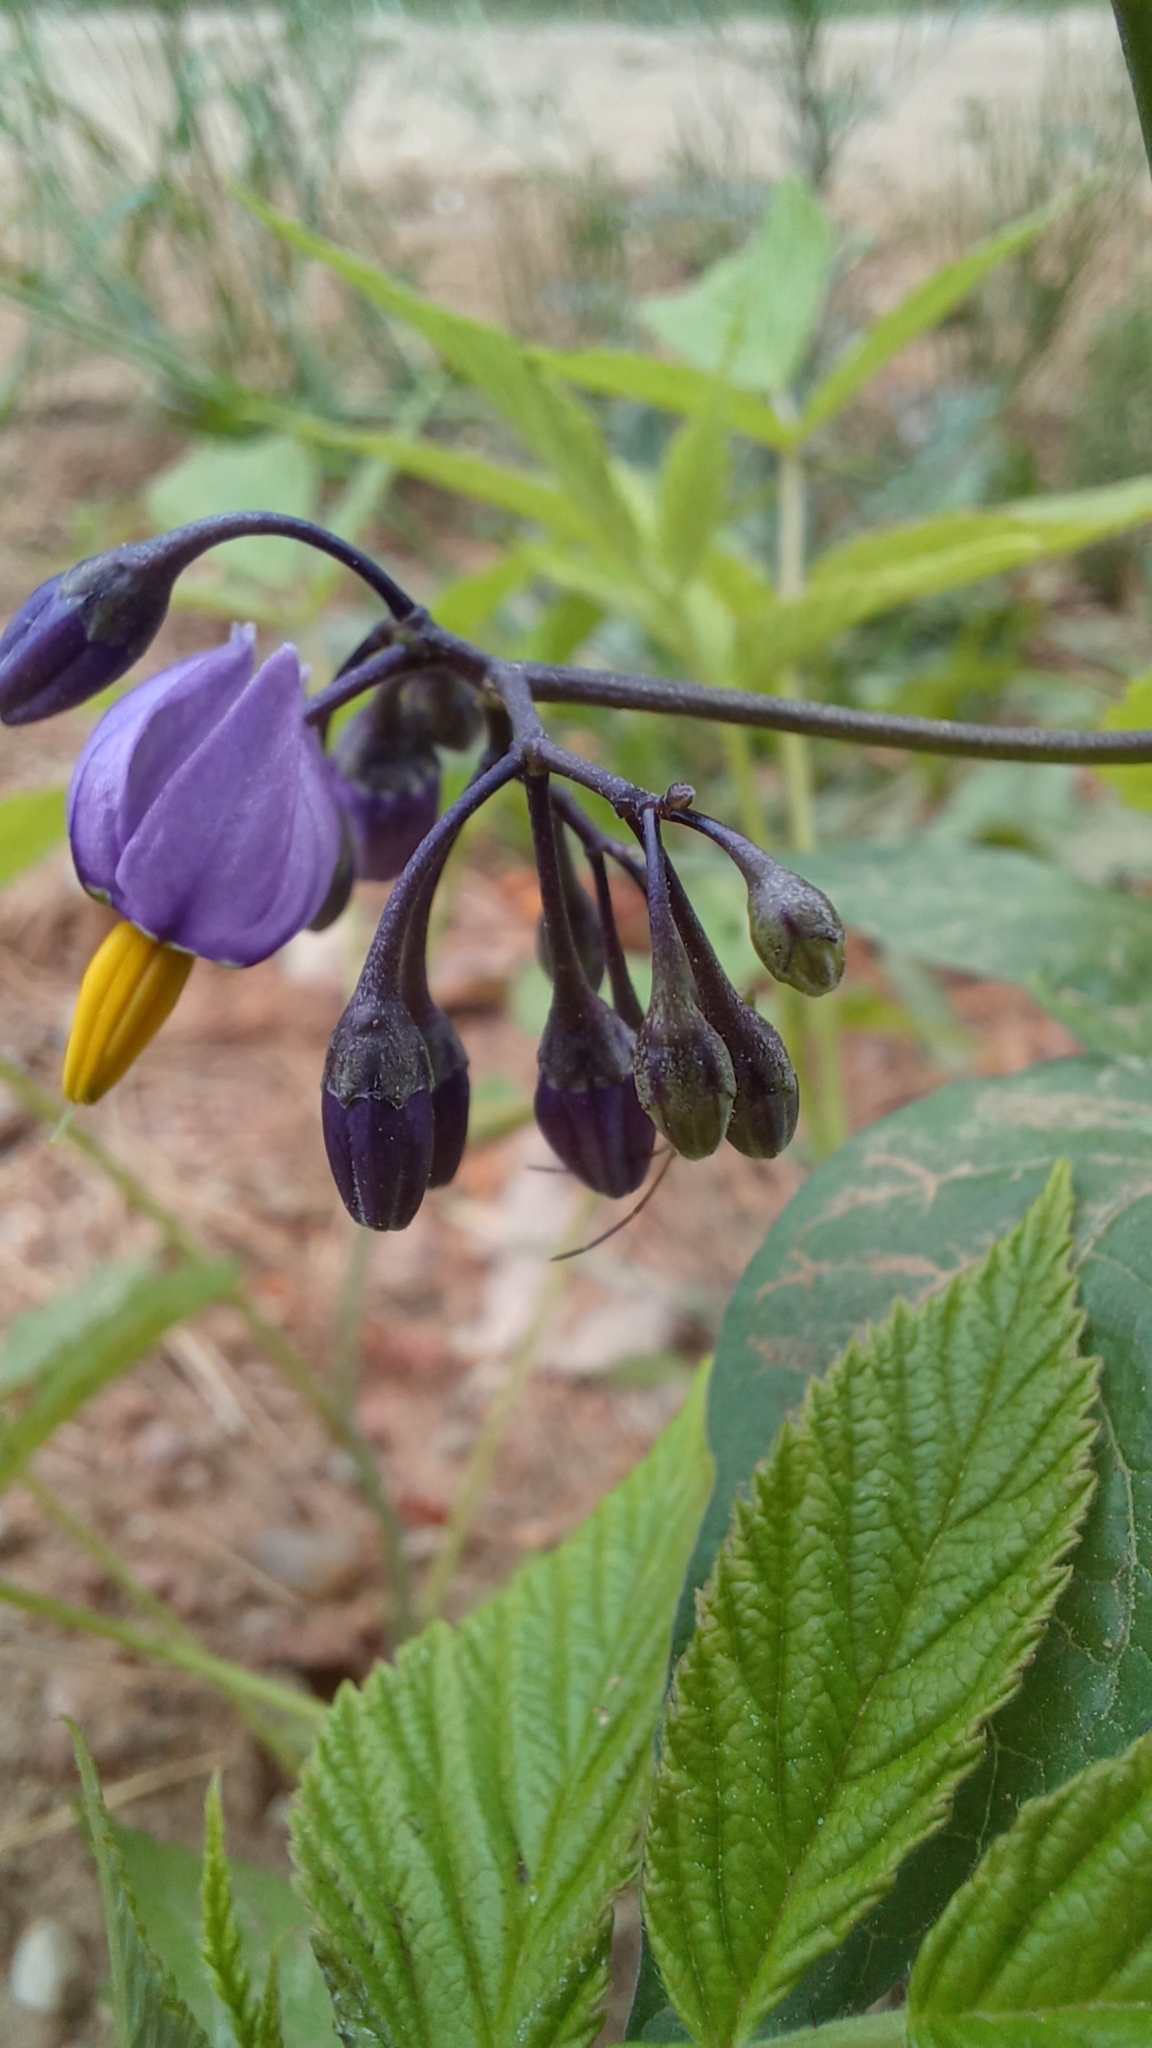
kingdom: Plantae
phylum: Tracheophyta
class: Magnoliopsida
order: Solanales
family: Solanaceae
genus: Solanum
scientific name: Solanum dulcamara
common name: Climbing nightshade
